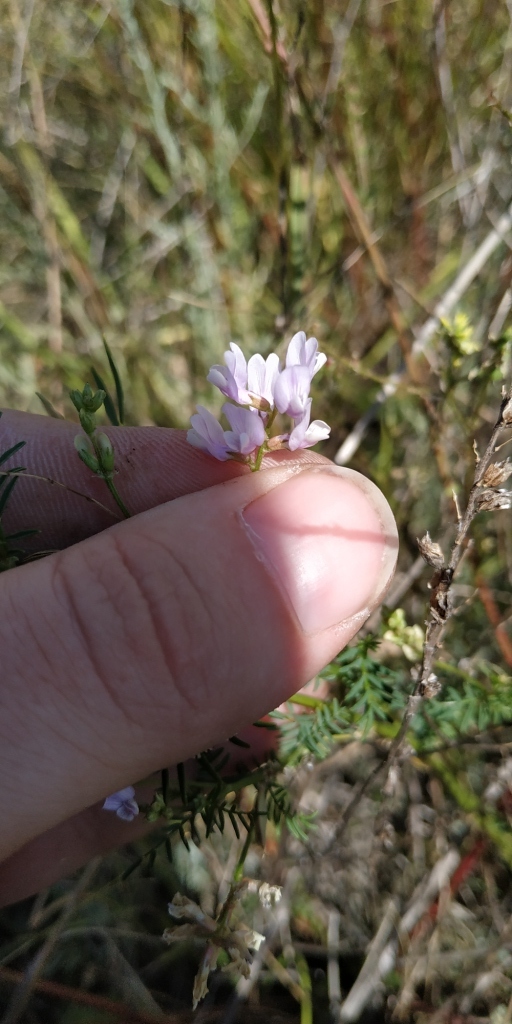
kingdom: Plantae
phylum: Tracheophyta
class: Magnoliopsida
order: Fabales
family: Fabaceae
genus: Astragalus
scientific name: Astragalus sulcatus
